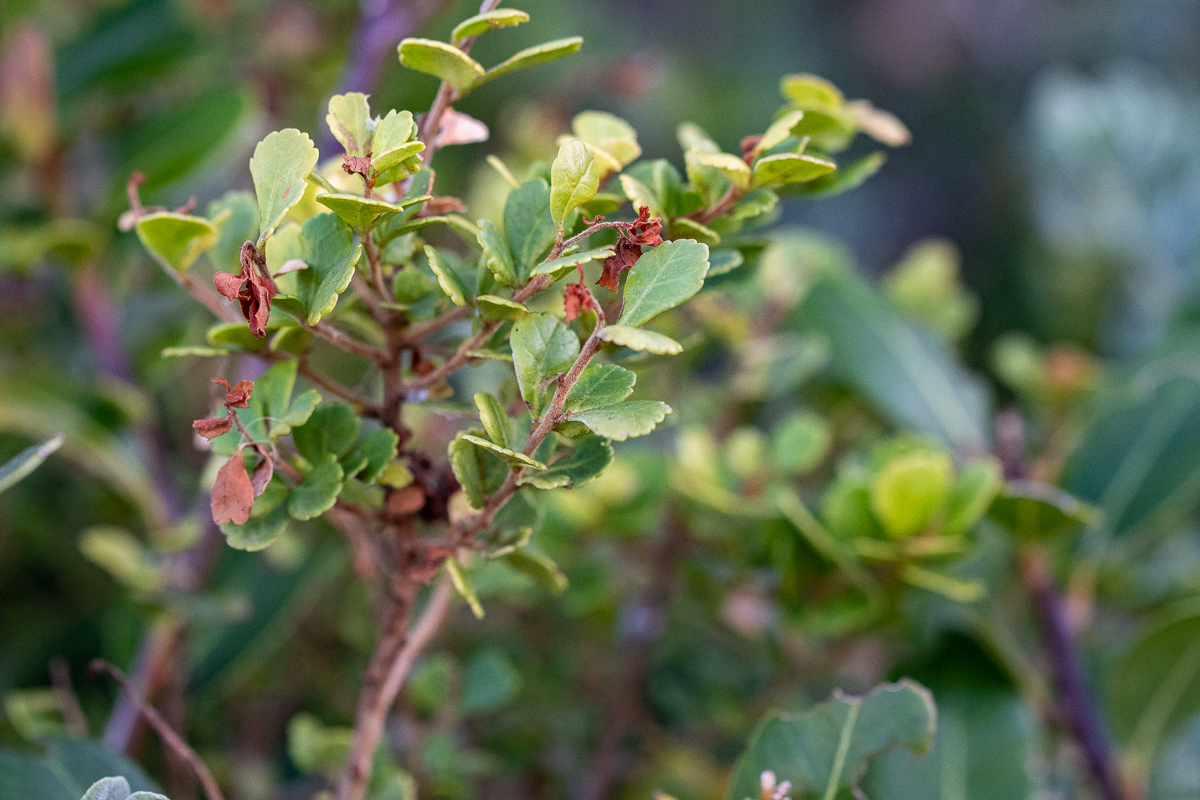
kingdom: Plantae
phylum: Tracheophyta
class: Magnoliopsida
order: Sapindales
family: Anacardiaceae
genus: Searsia
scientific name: Searsia crenata
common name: Crowberry
